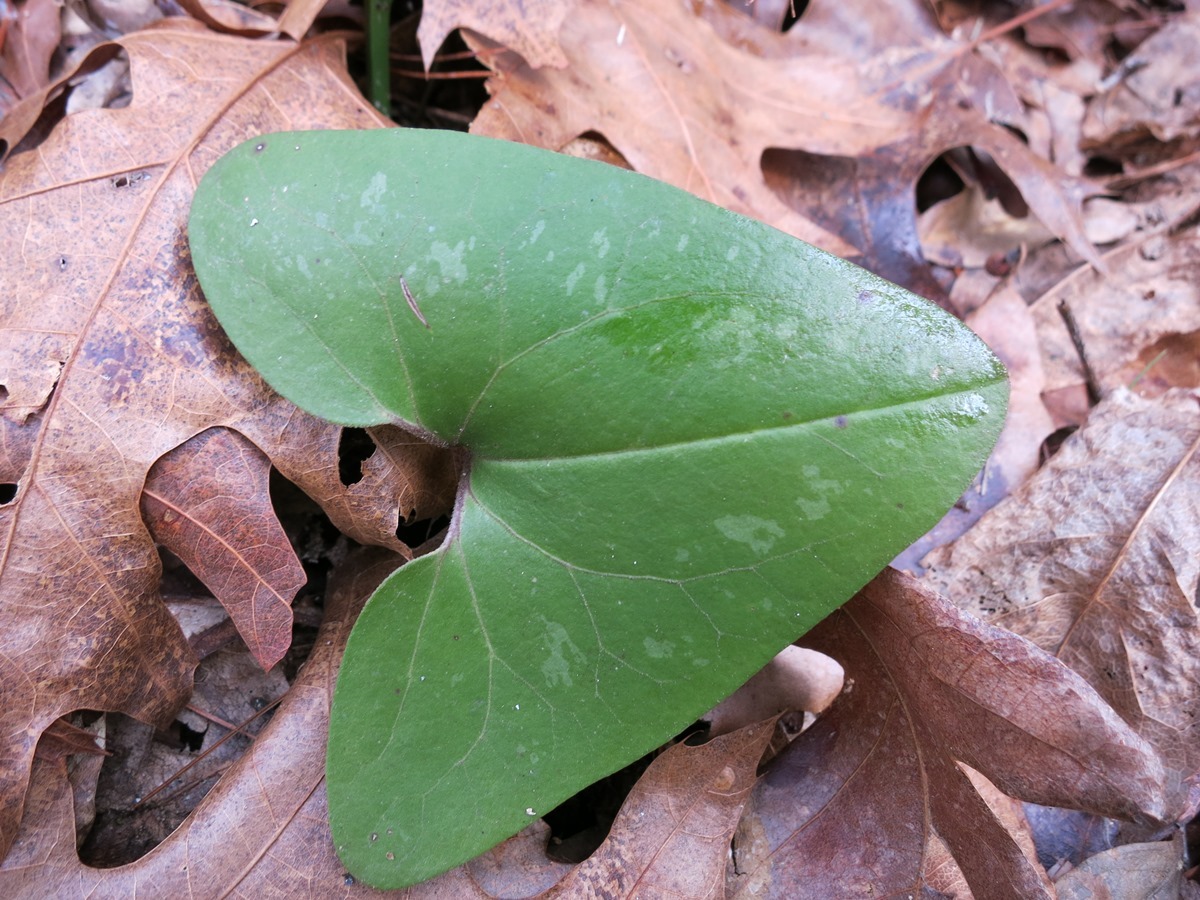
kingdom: Plantae
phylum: Tracheophyta
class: Magnoliopsida
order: Piperales
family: Aristolochiaceae
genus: Hexastylis
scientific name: Hexastylis arifolia
